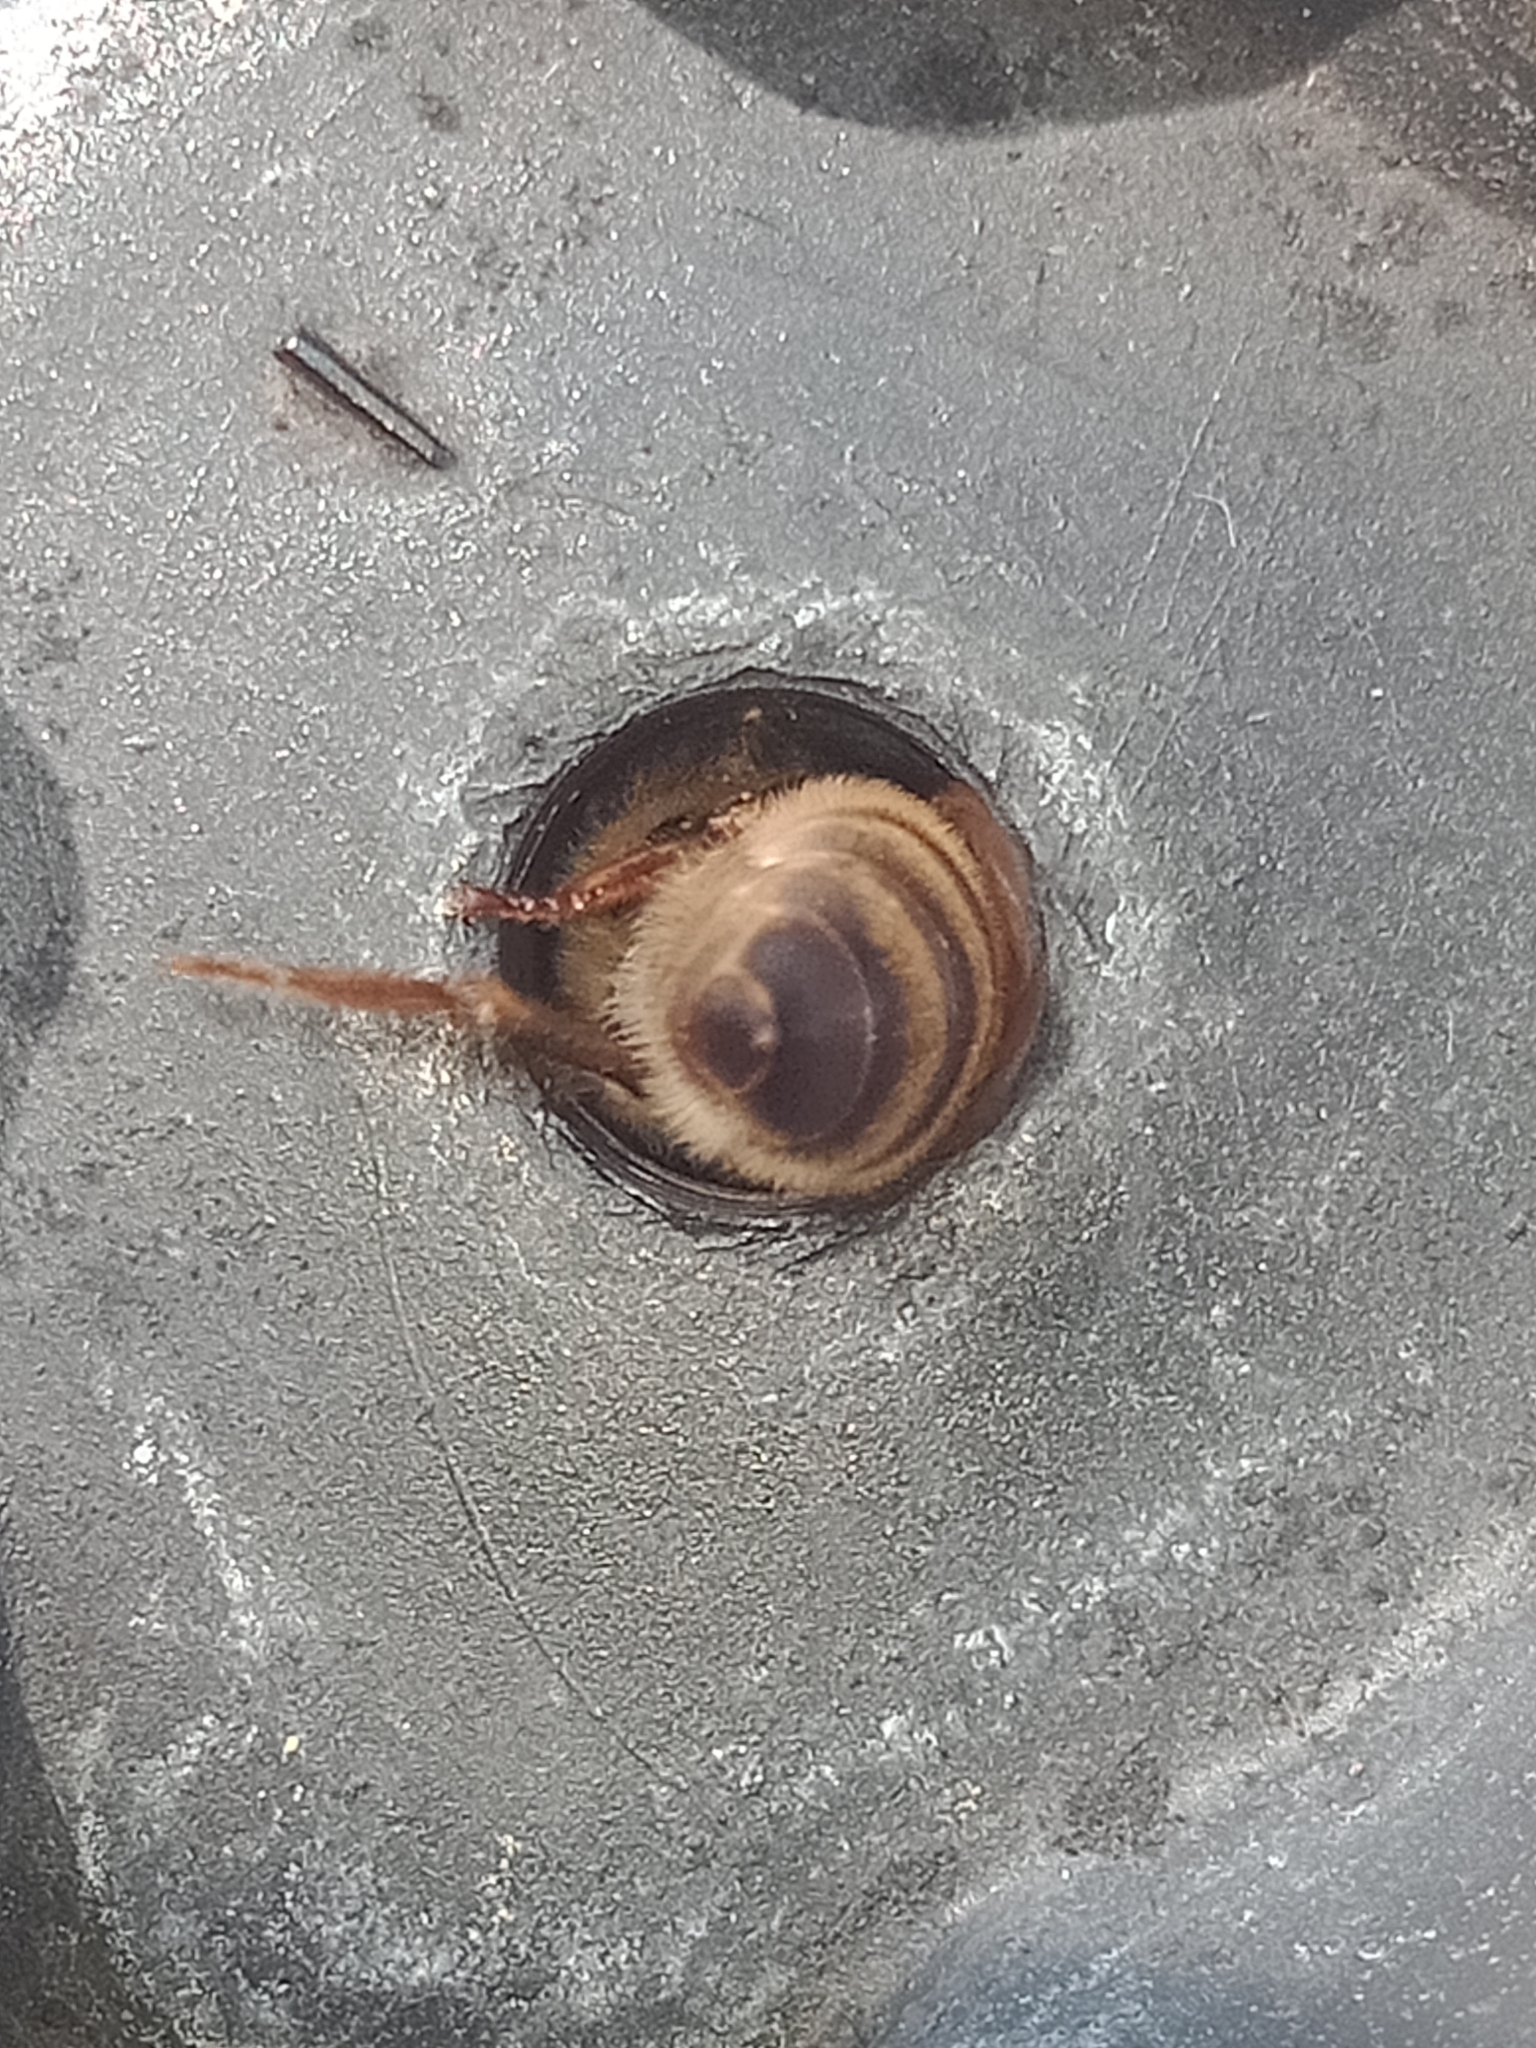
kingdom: Animalia
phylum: Arthropoda
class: Insecta
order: Hymenoptera
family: Apidae
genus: Apis
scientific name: Apis mellifera
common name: Honey bee
